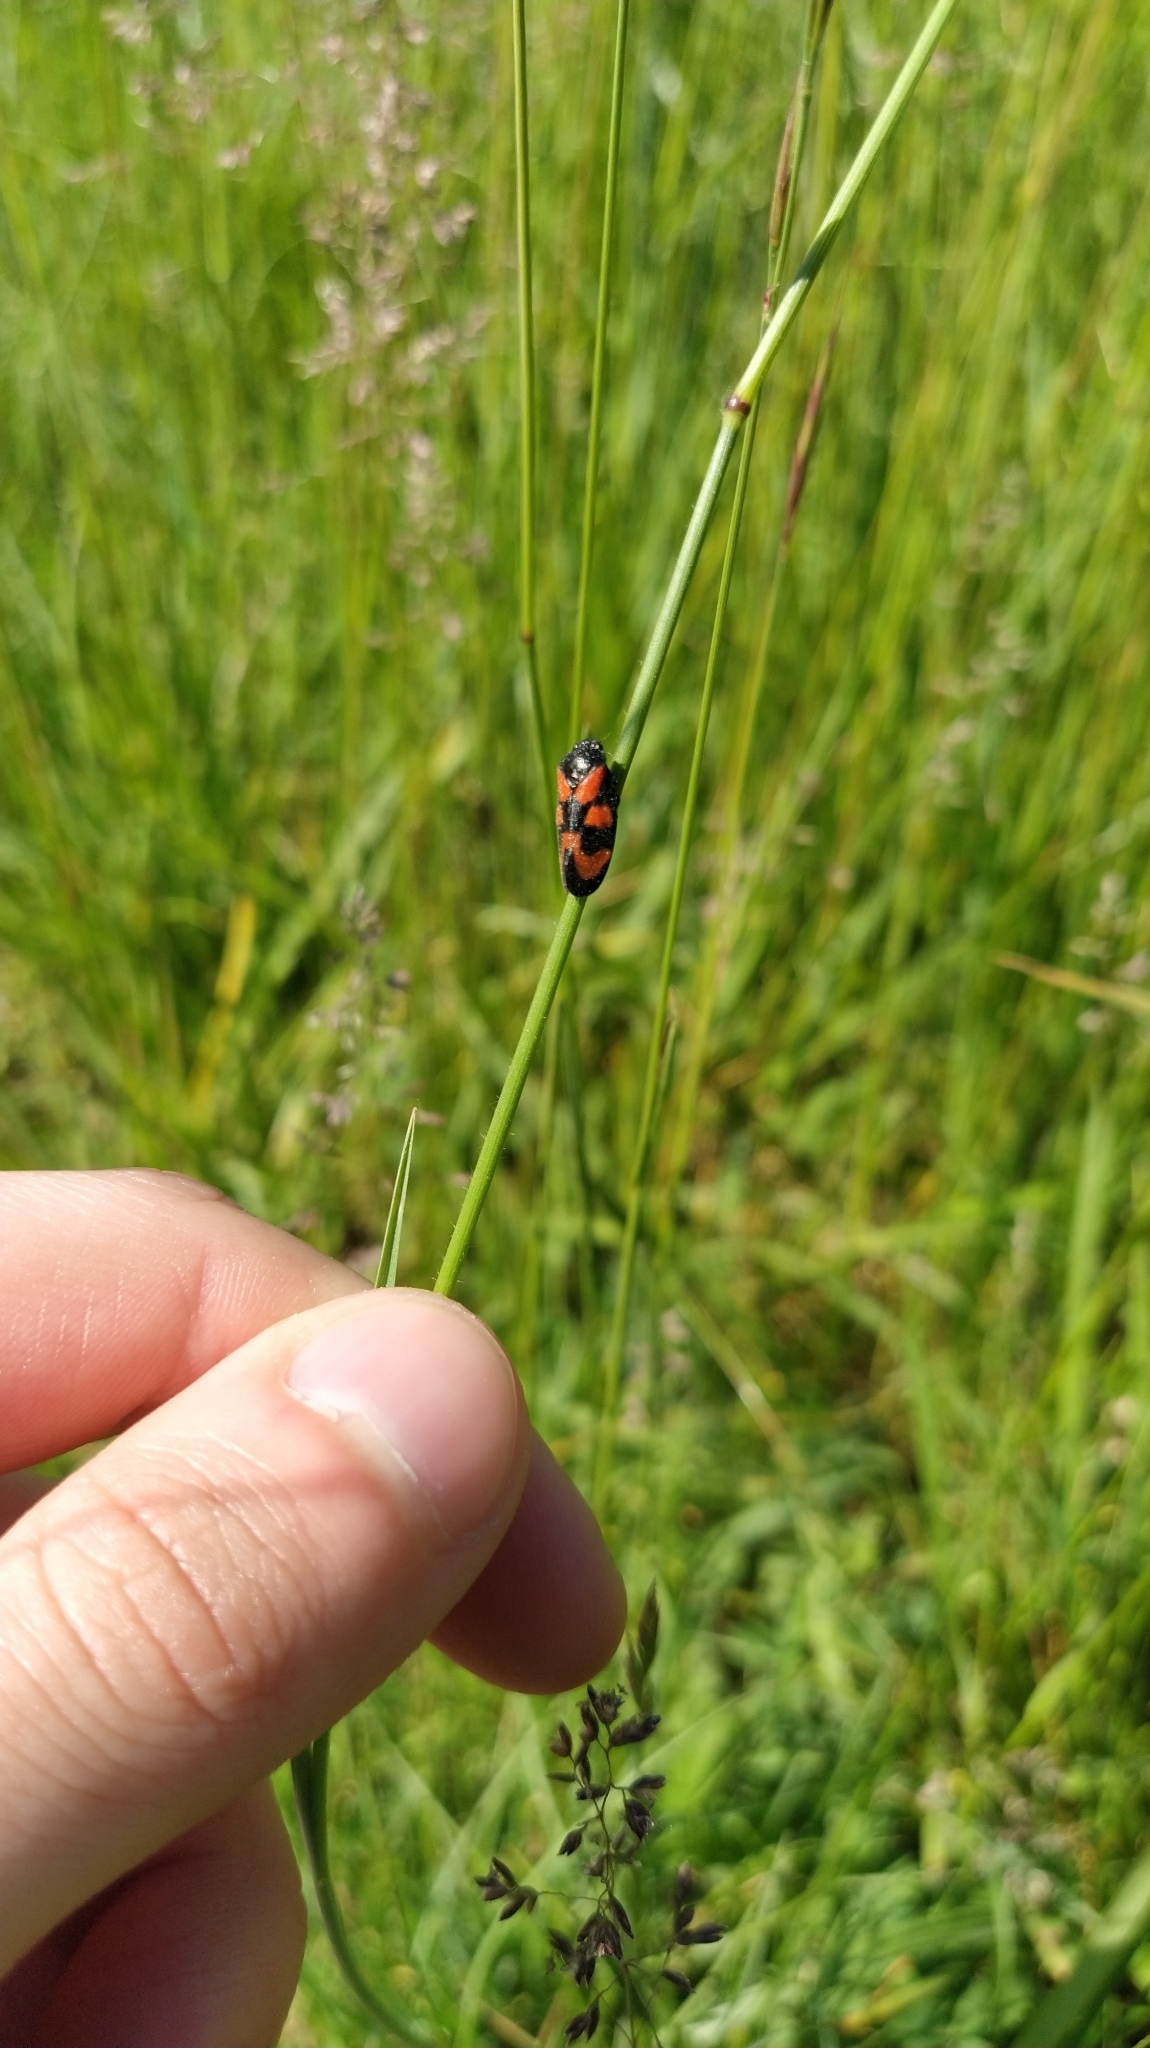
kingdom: Animalia
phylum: Arthropoda
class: Insecta
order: Hemiptera
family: Cercopidae
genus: Cercopis
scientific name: Cercopis vulnerata
